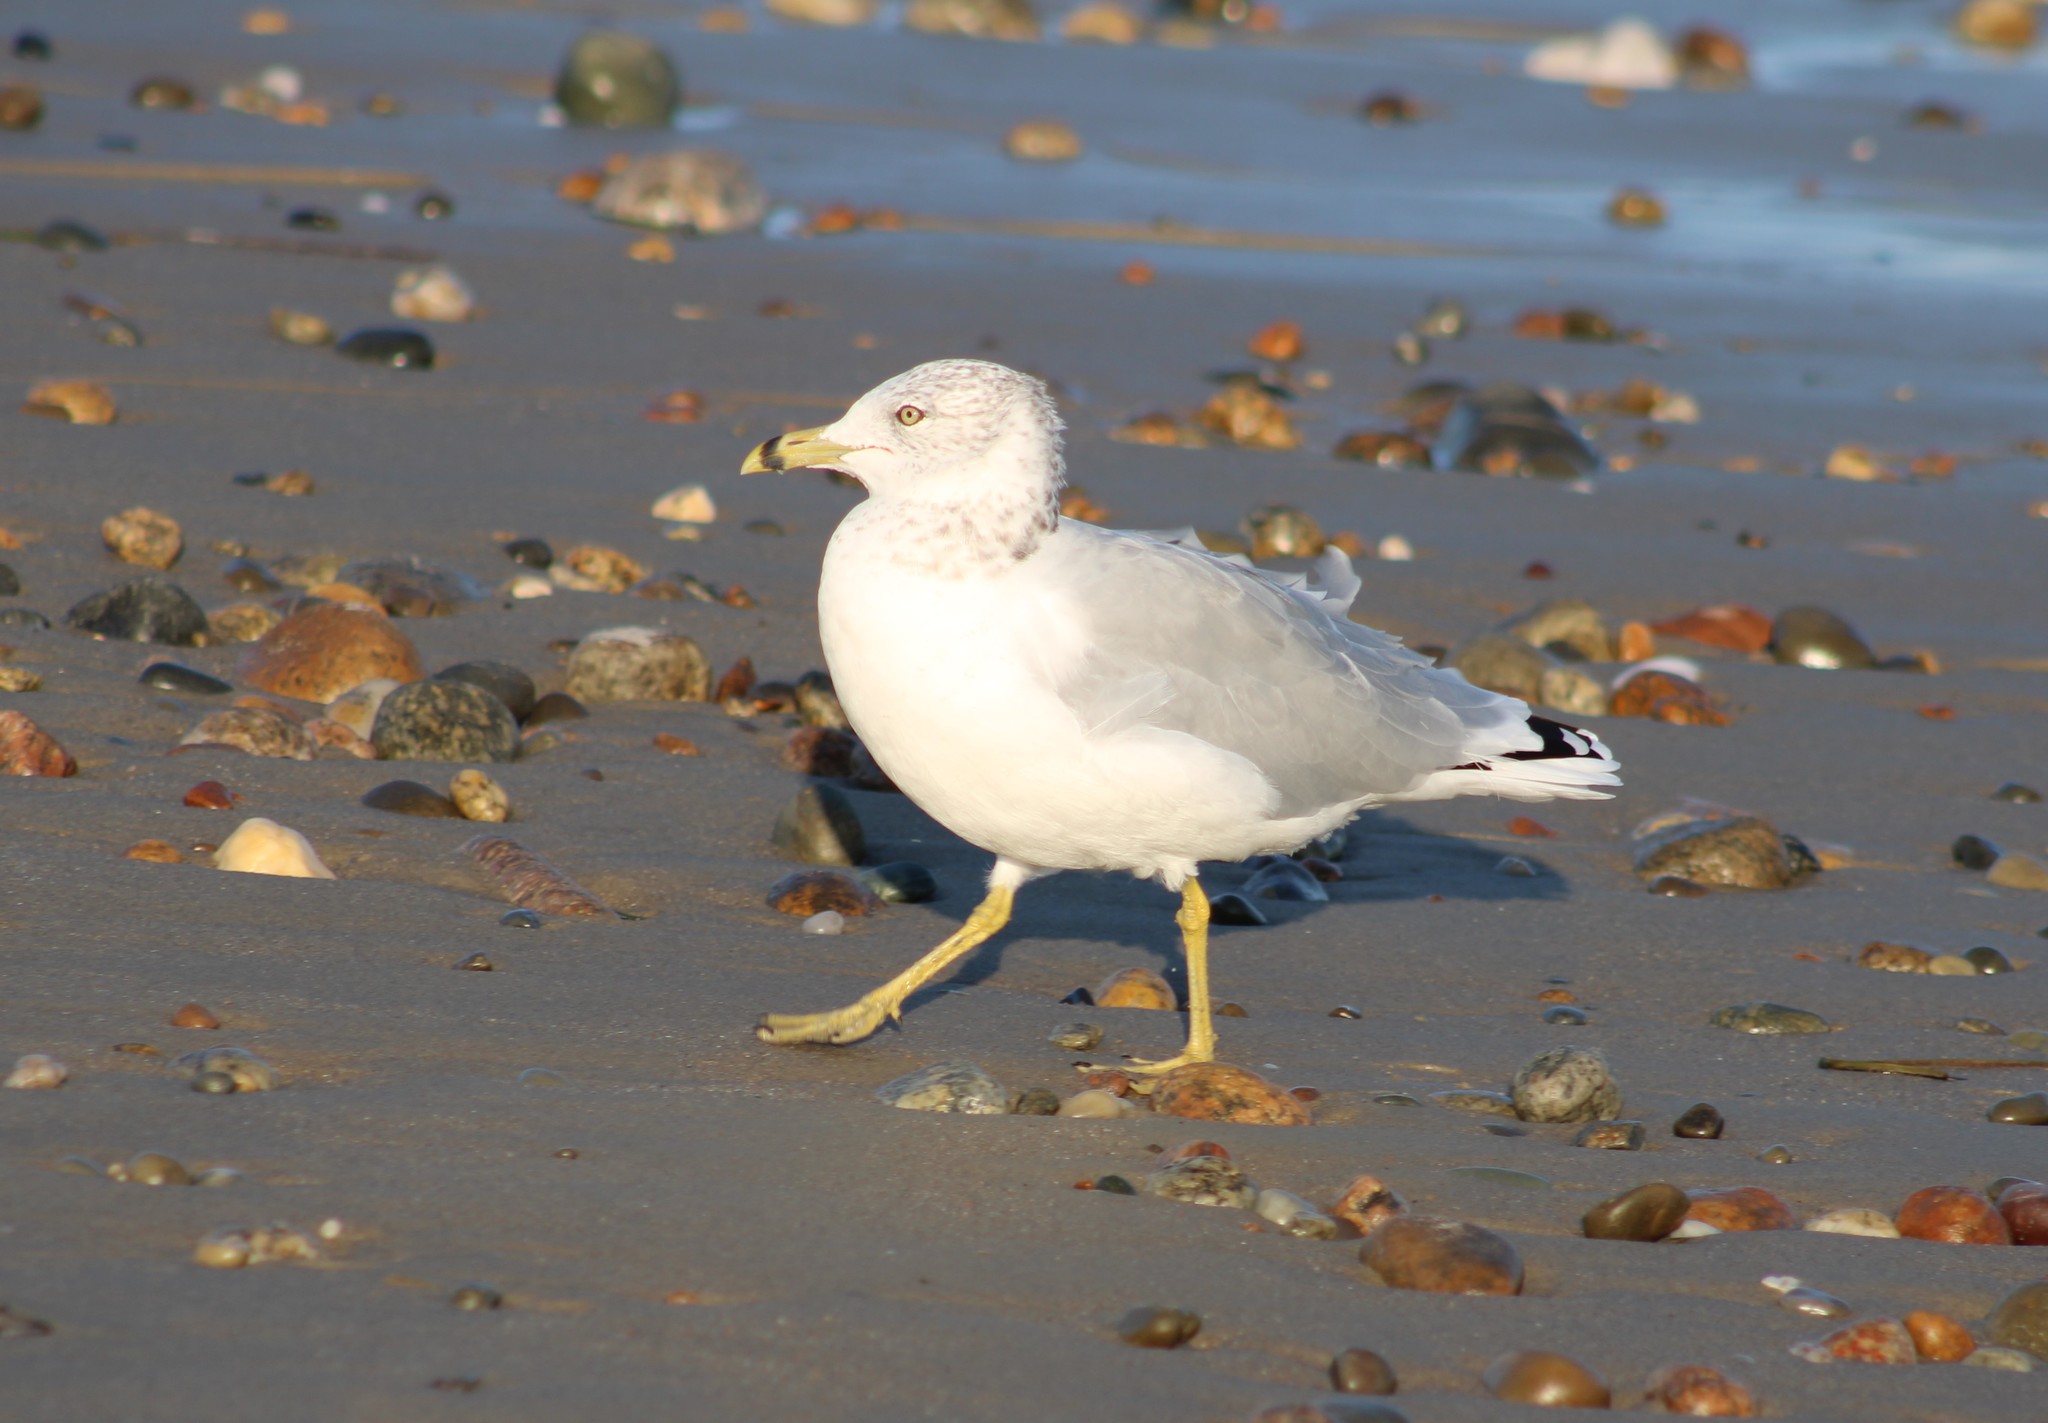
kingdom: Animalia
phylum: Chordata
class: Aves
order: Charadriiformes
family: Laridae
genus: Larus
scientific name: Larus delawarensis
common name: Ring-billed gull
